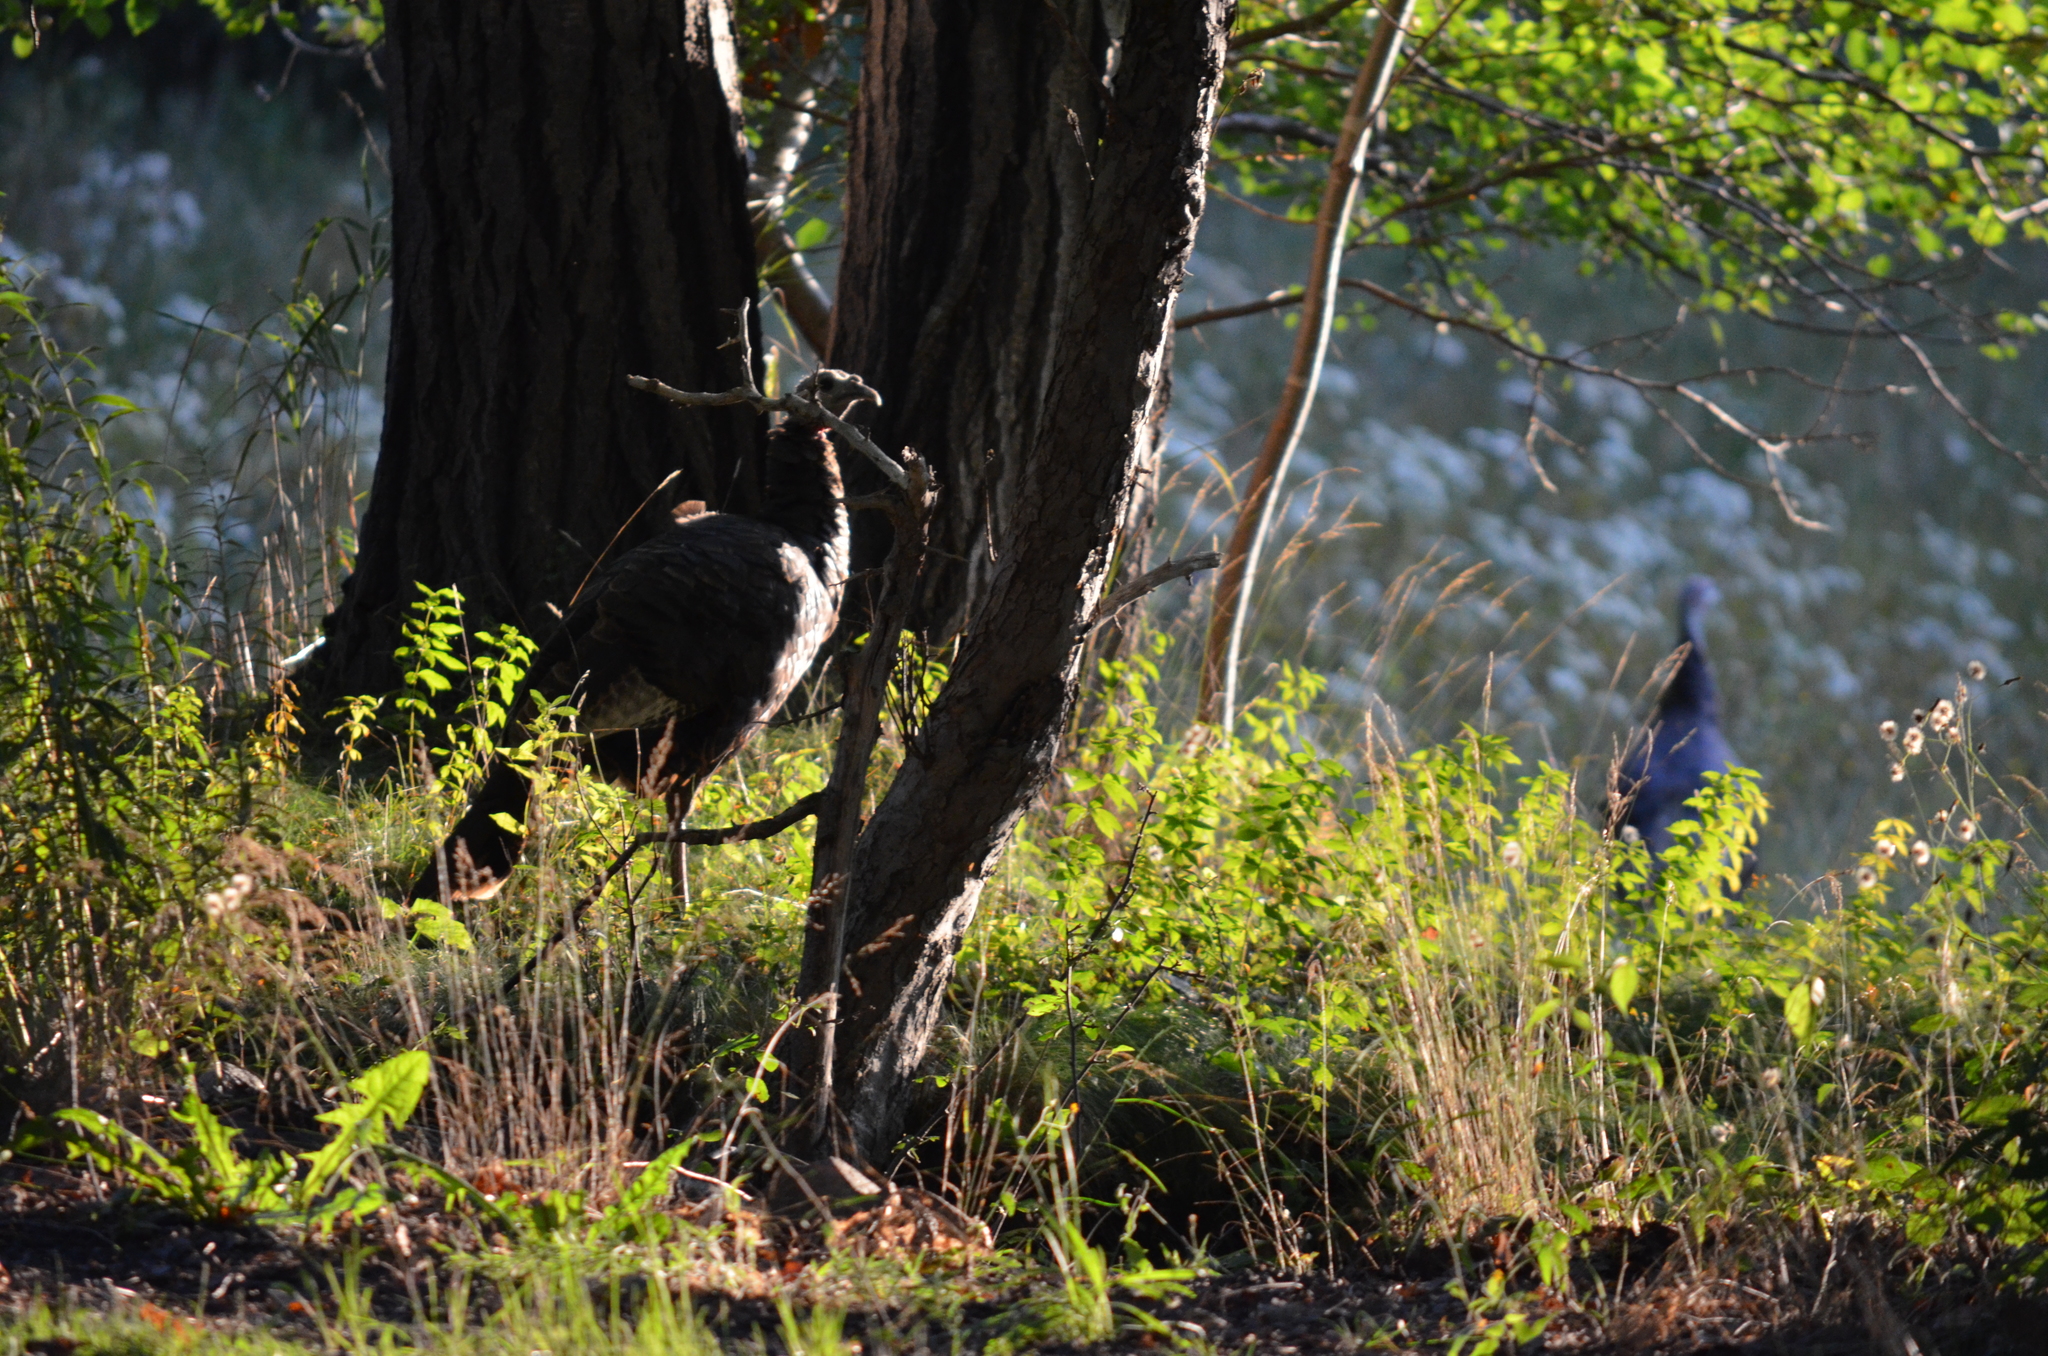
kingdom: Animalia
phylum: Chordata
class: Aves
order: Galliformes
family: Phasianidae
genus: Meleagris
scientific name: Meleagris gallopavo
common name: Wild turkey
